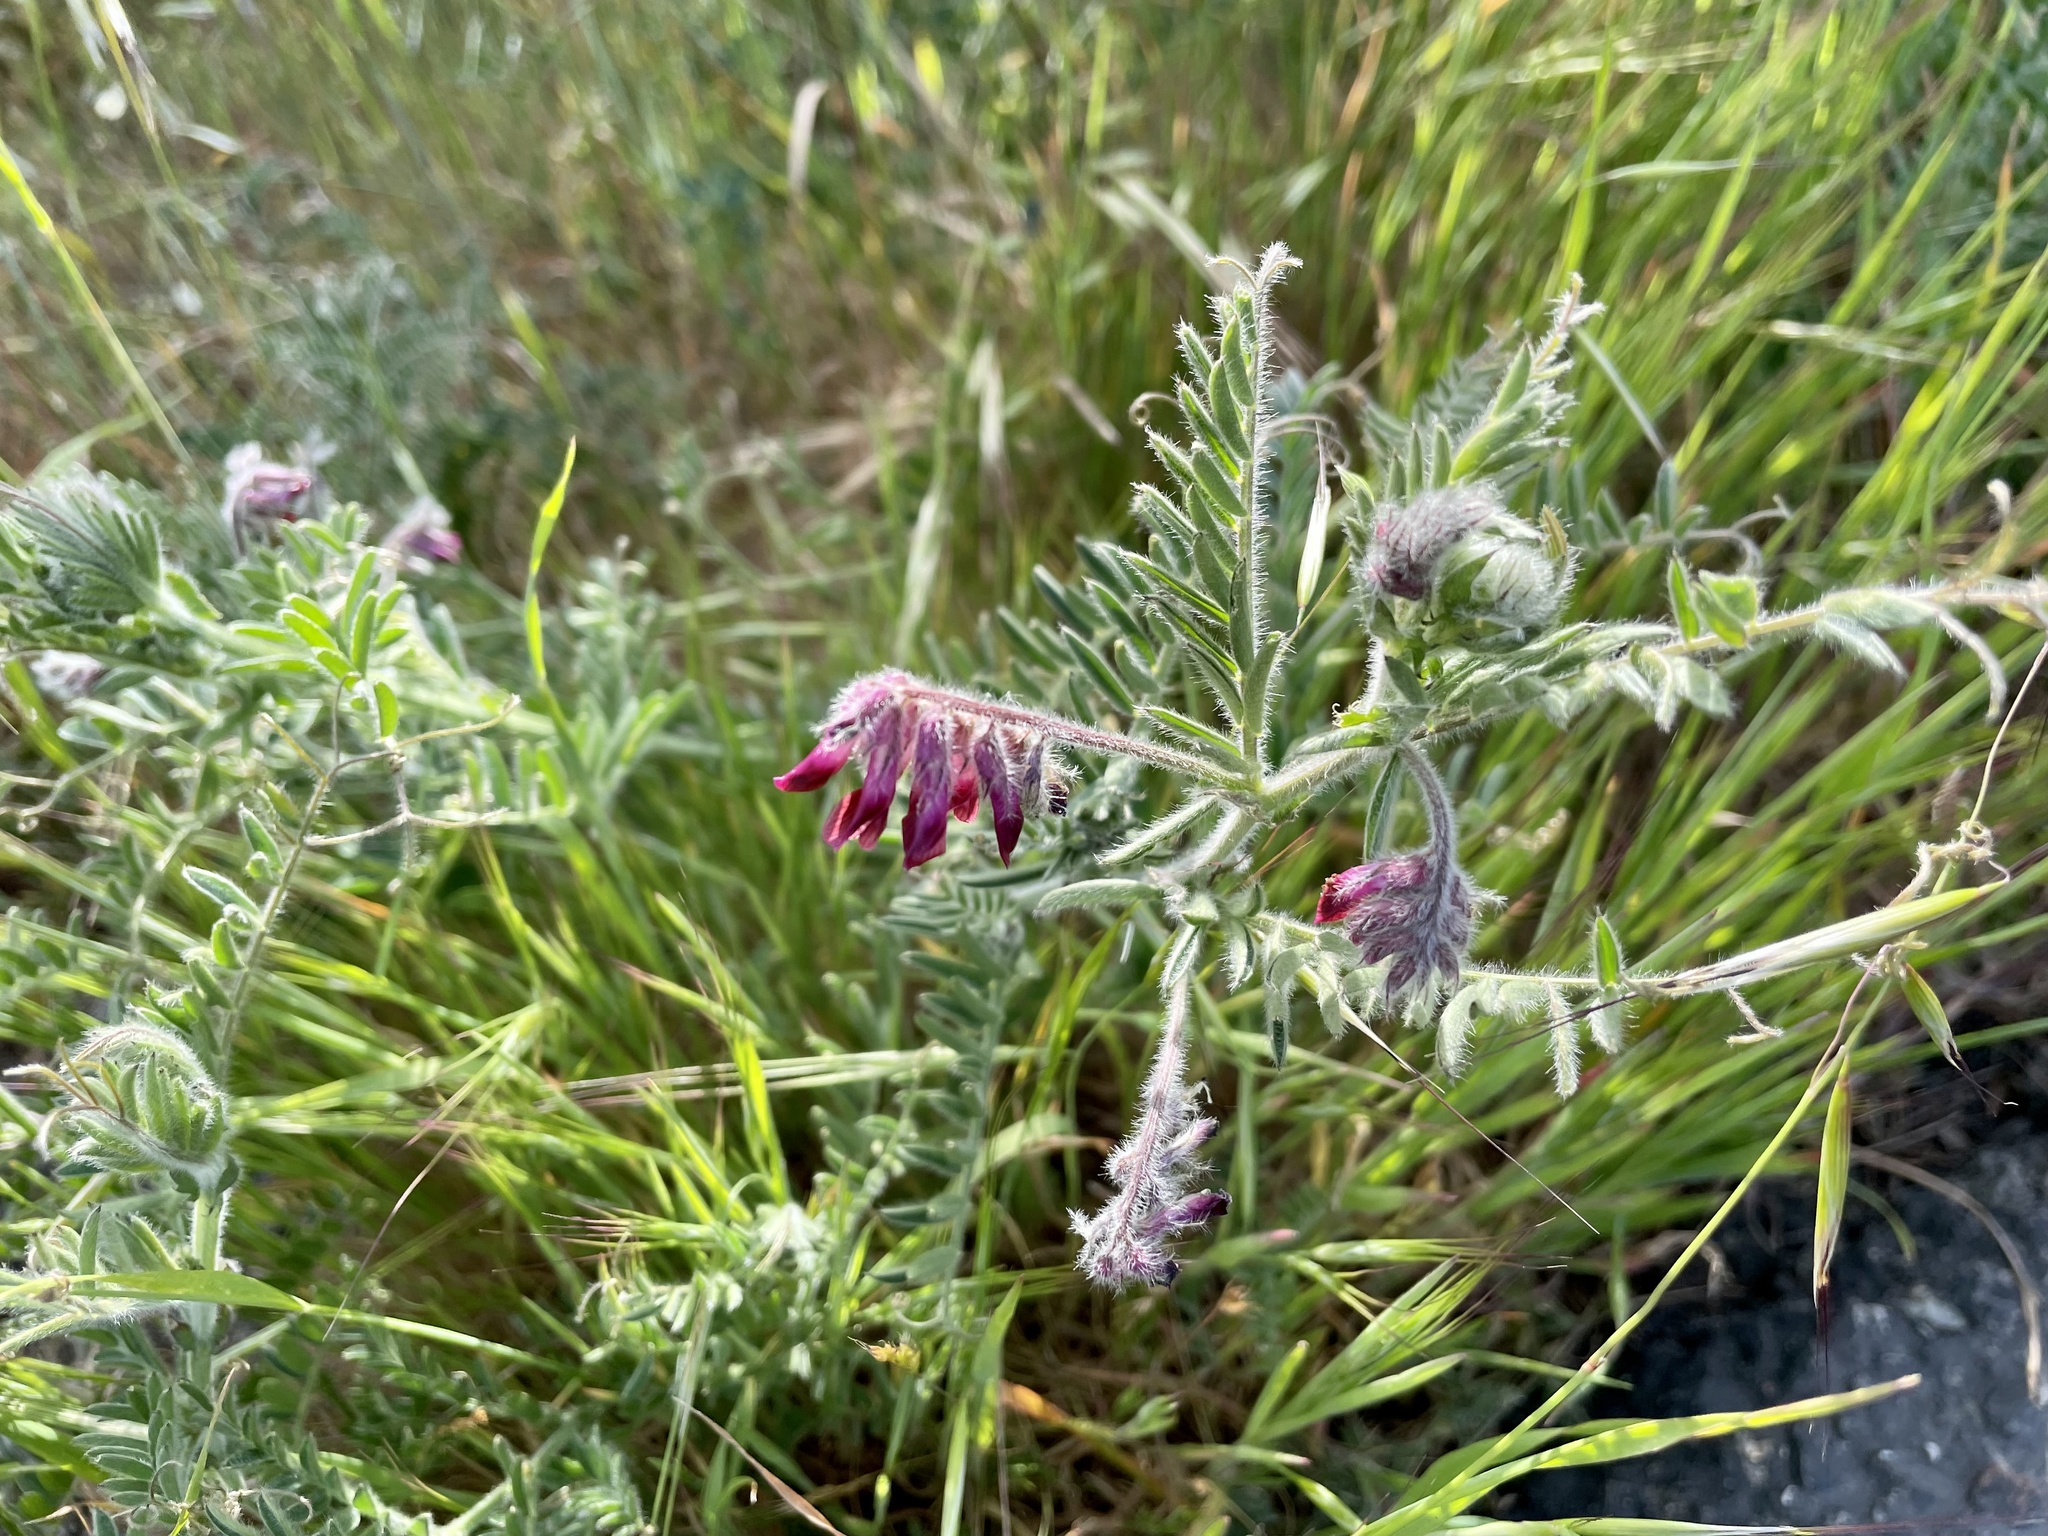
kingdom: Plantae
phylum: Tracheophyta
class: Magnoliopsida
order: Fabales
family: Fabaceae
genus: Vicia
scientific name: Vicia benghalensis
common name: Purple vetch
